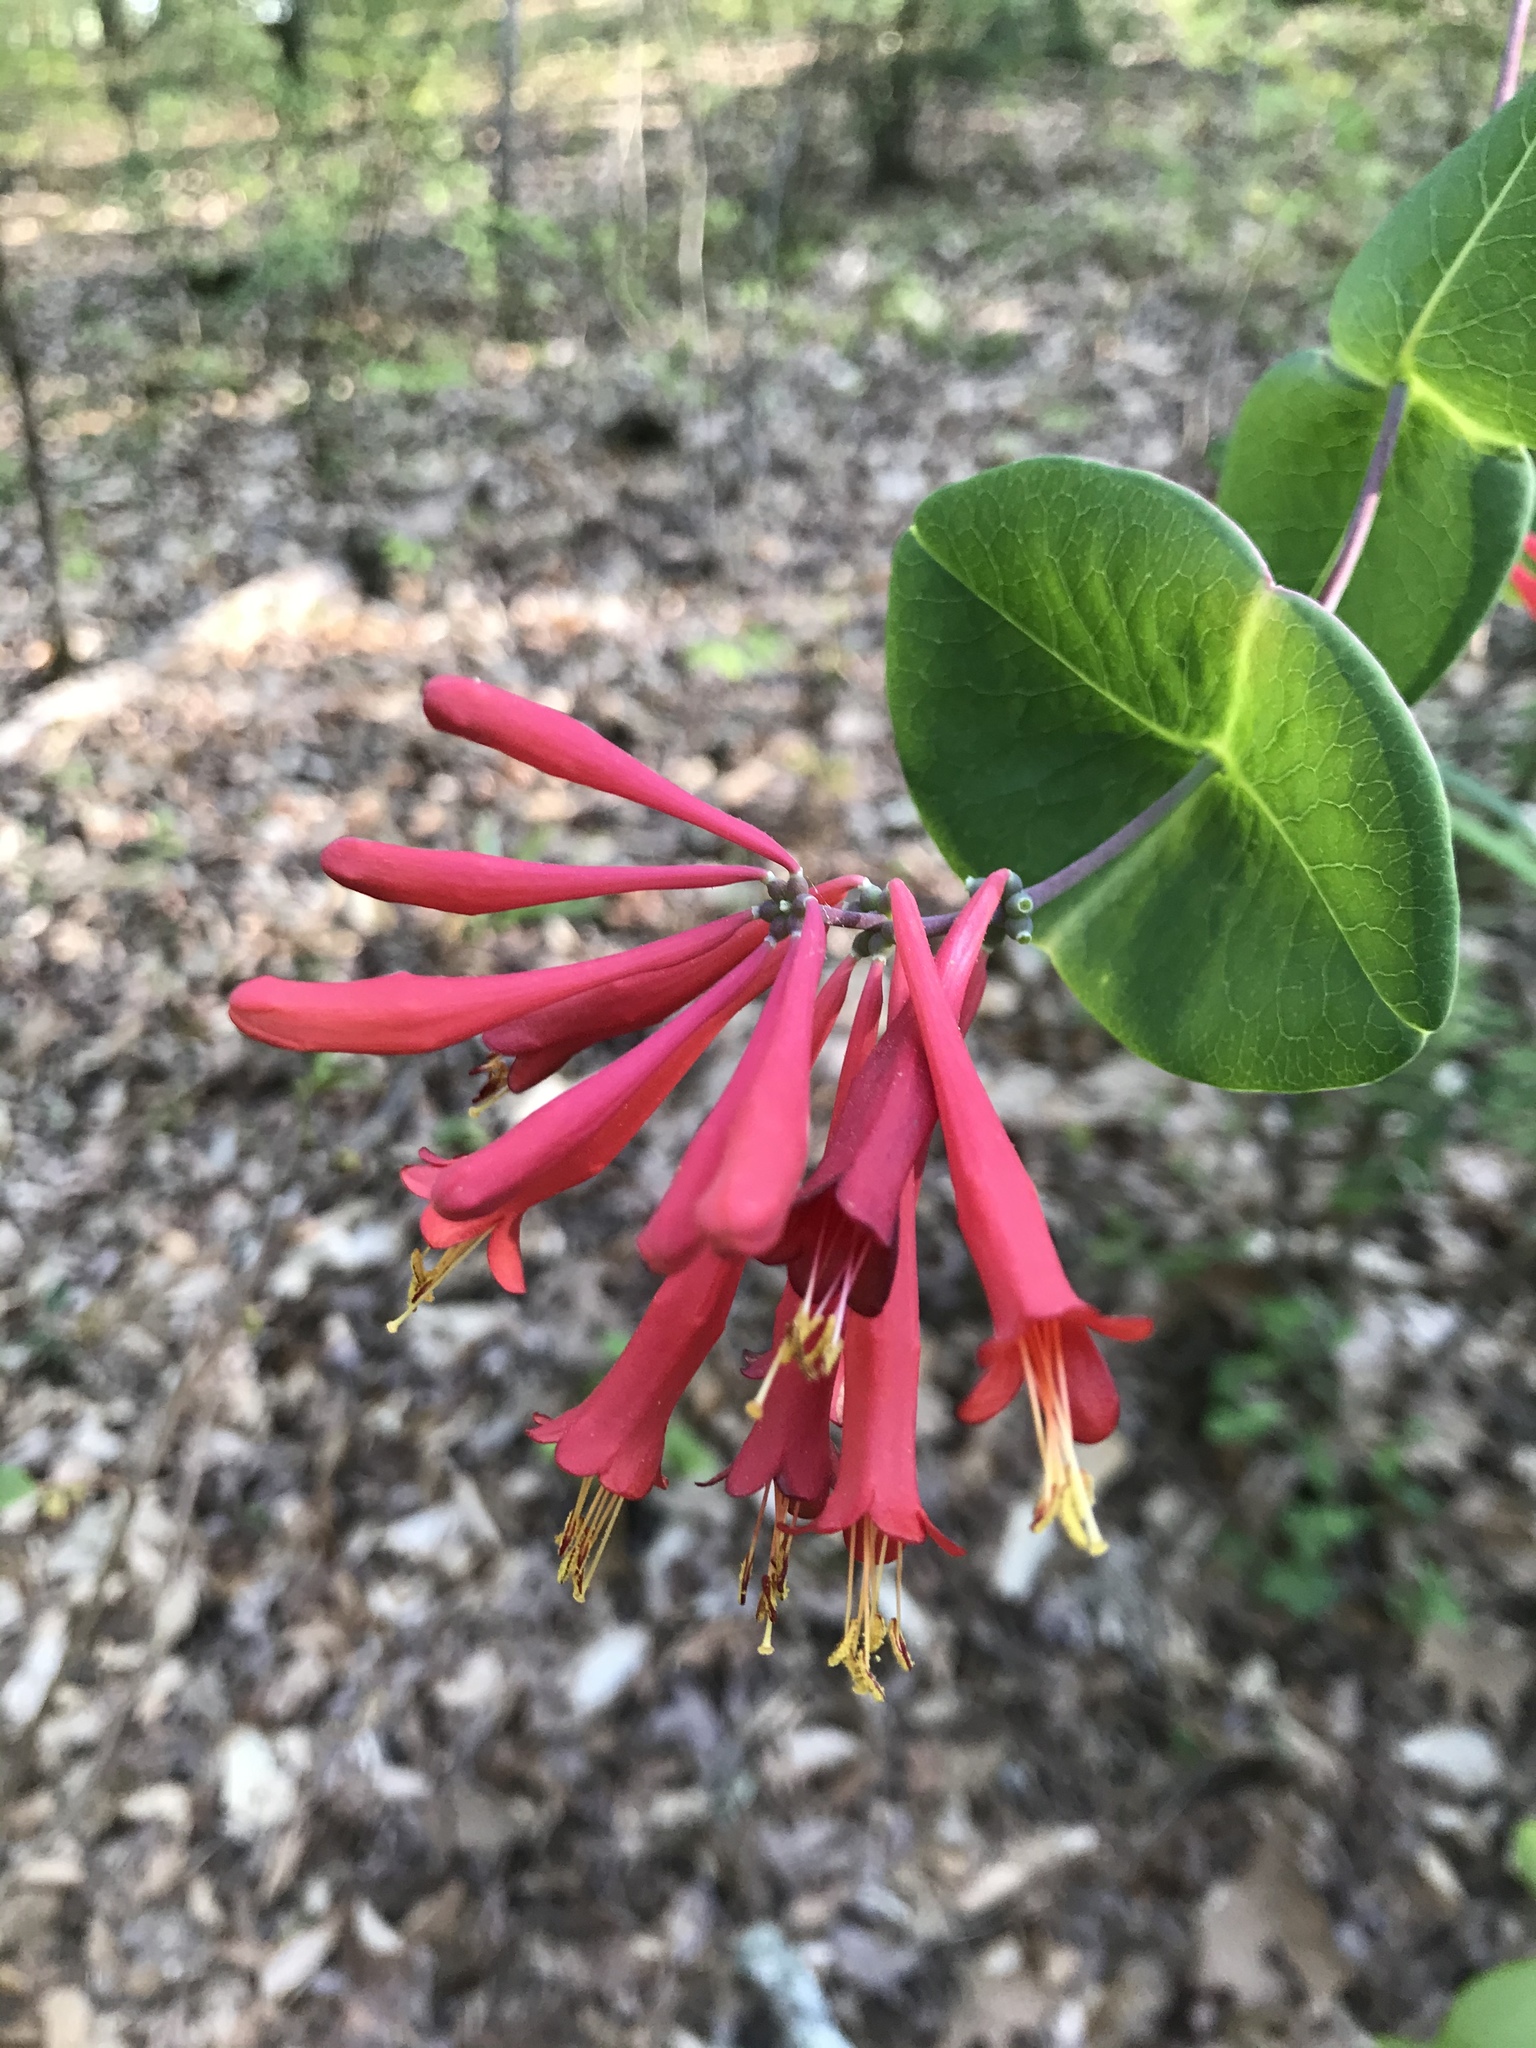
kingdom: Plantae
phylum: Tracheophyta
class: Magnoliopsida
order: Dipsacales
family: Caprifoliaceae
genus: Lonicera
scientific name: Lonicera sempervirens
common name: Coral honeysuckle
